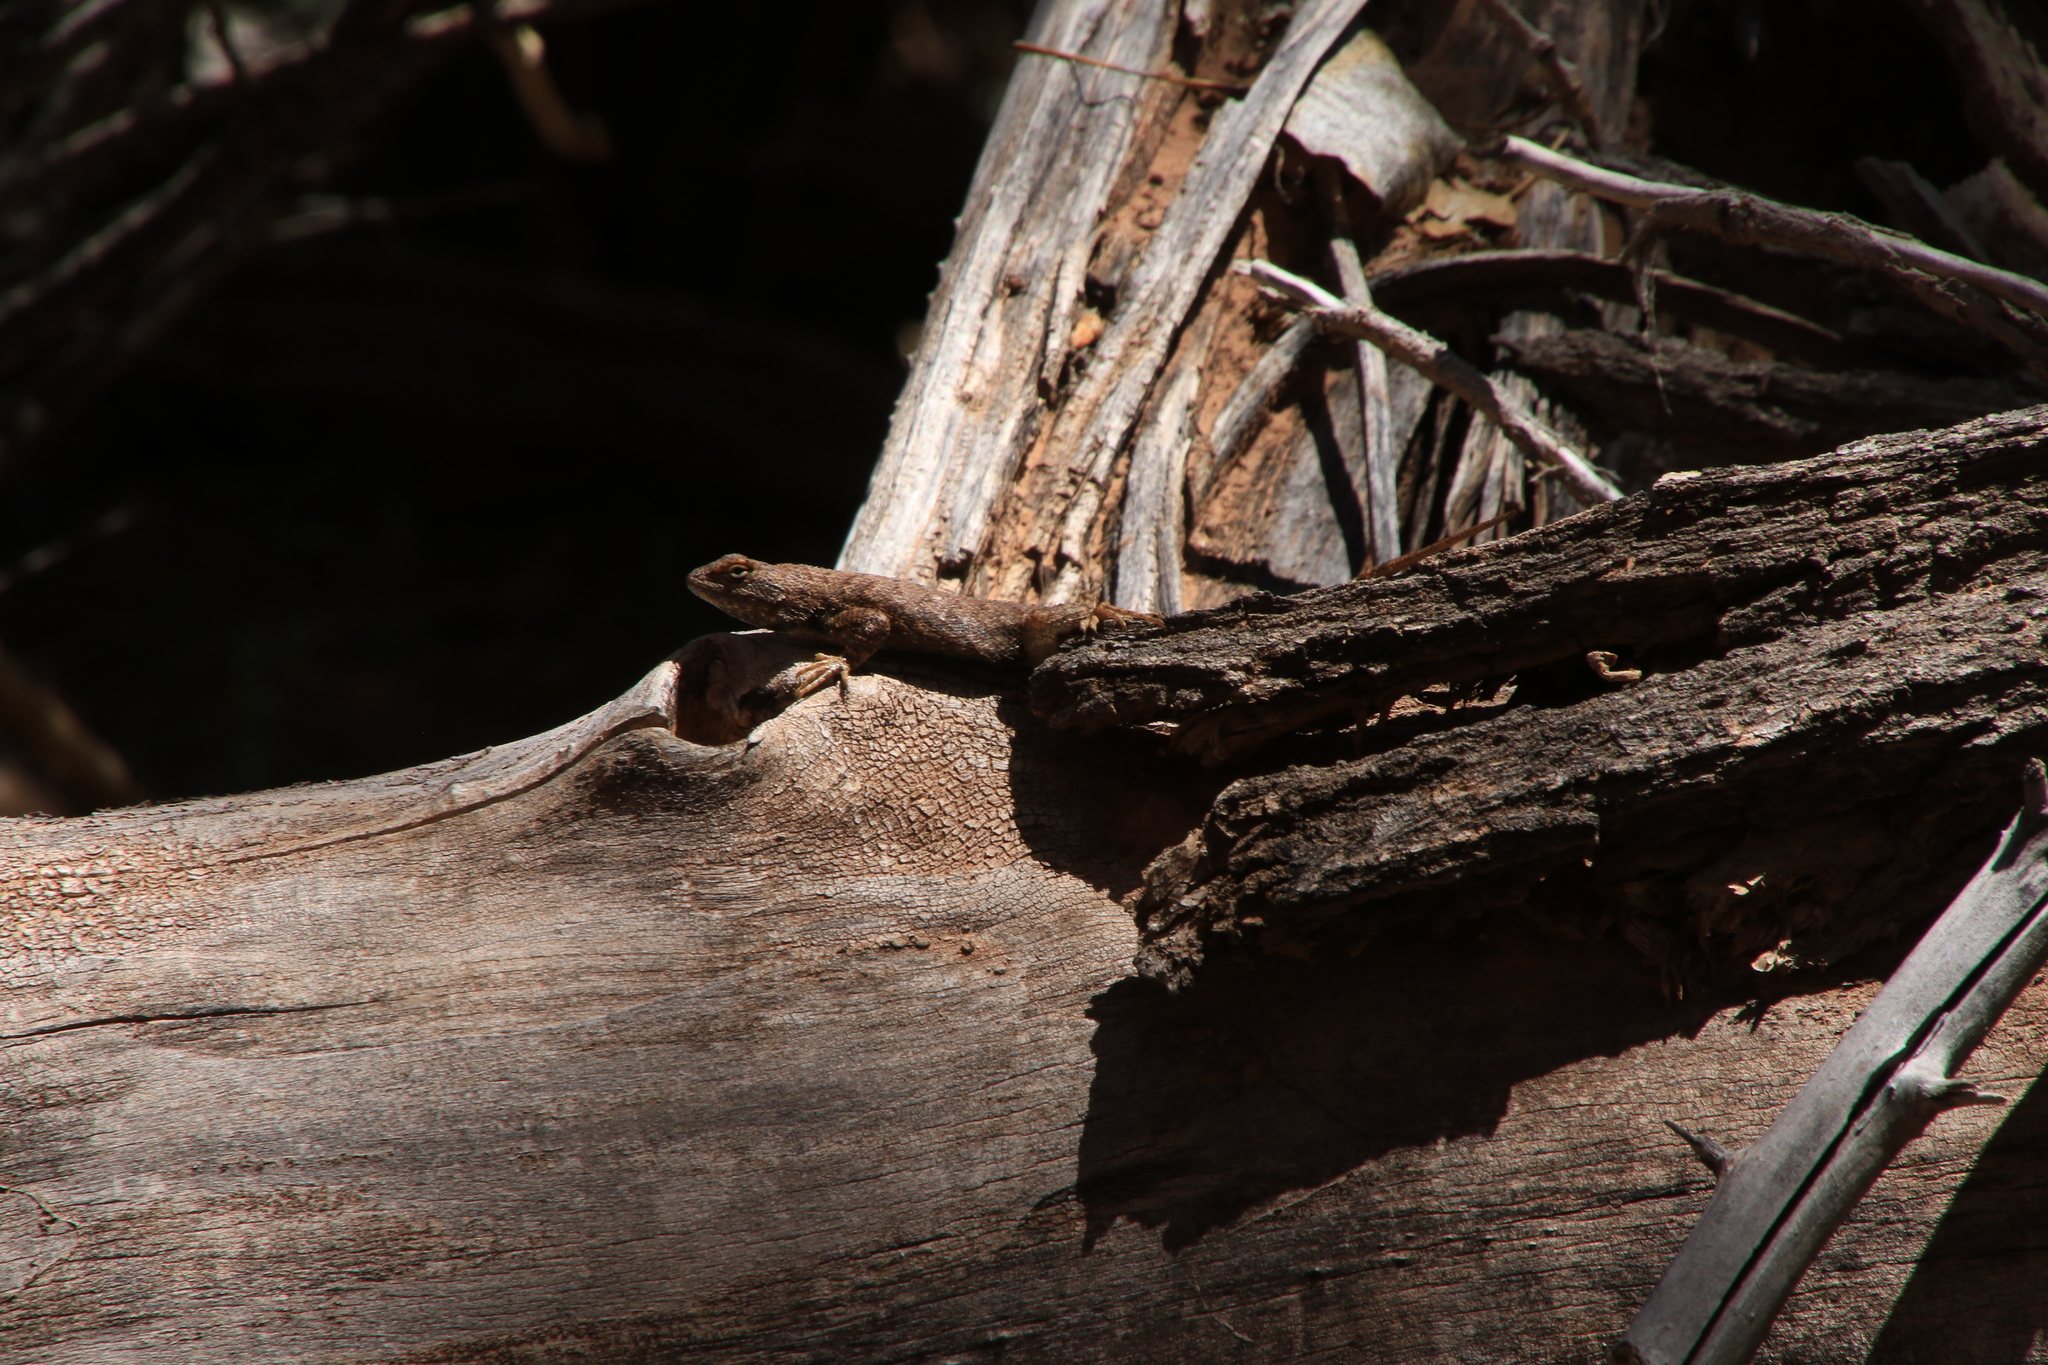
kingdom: Animalia
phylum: Chordata
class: Squamata
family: Phrynosomatidae
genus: Sceloporus
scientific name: Sceloporus tristichus
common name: Plateau fence lizard
